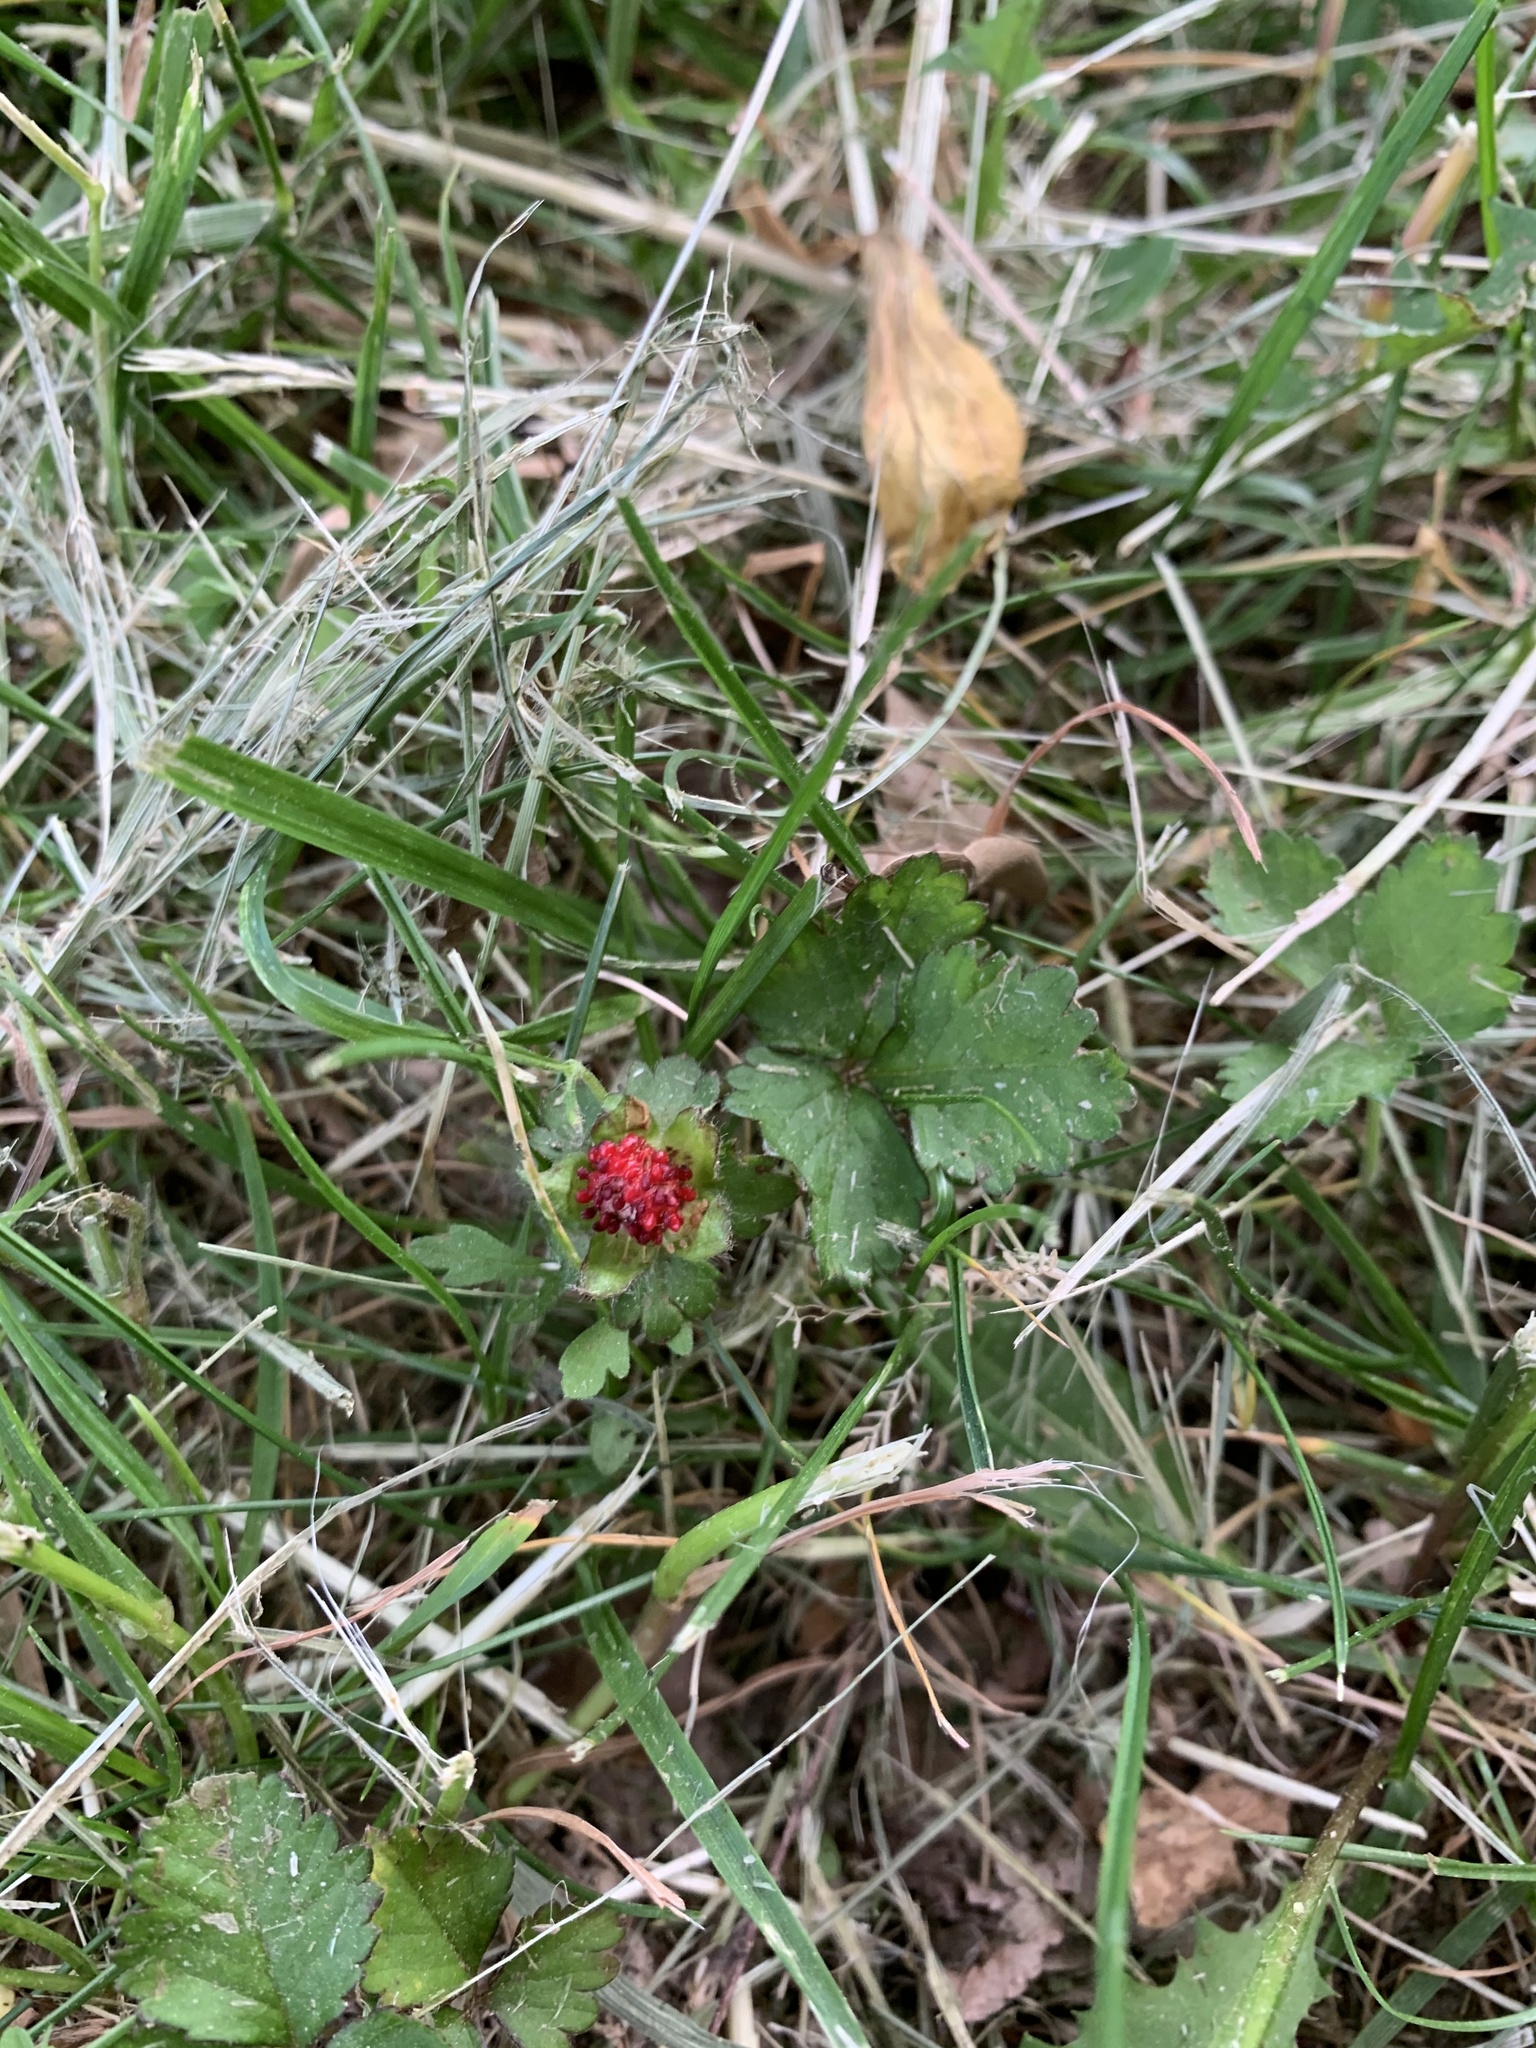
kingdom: Plantae
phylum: Tracheophyta
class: Magnoliopsida
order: Rosales
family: Rosaceae
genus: Potentilla
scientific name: Potentilla indica
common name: Yellow-flowered strawberry
